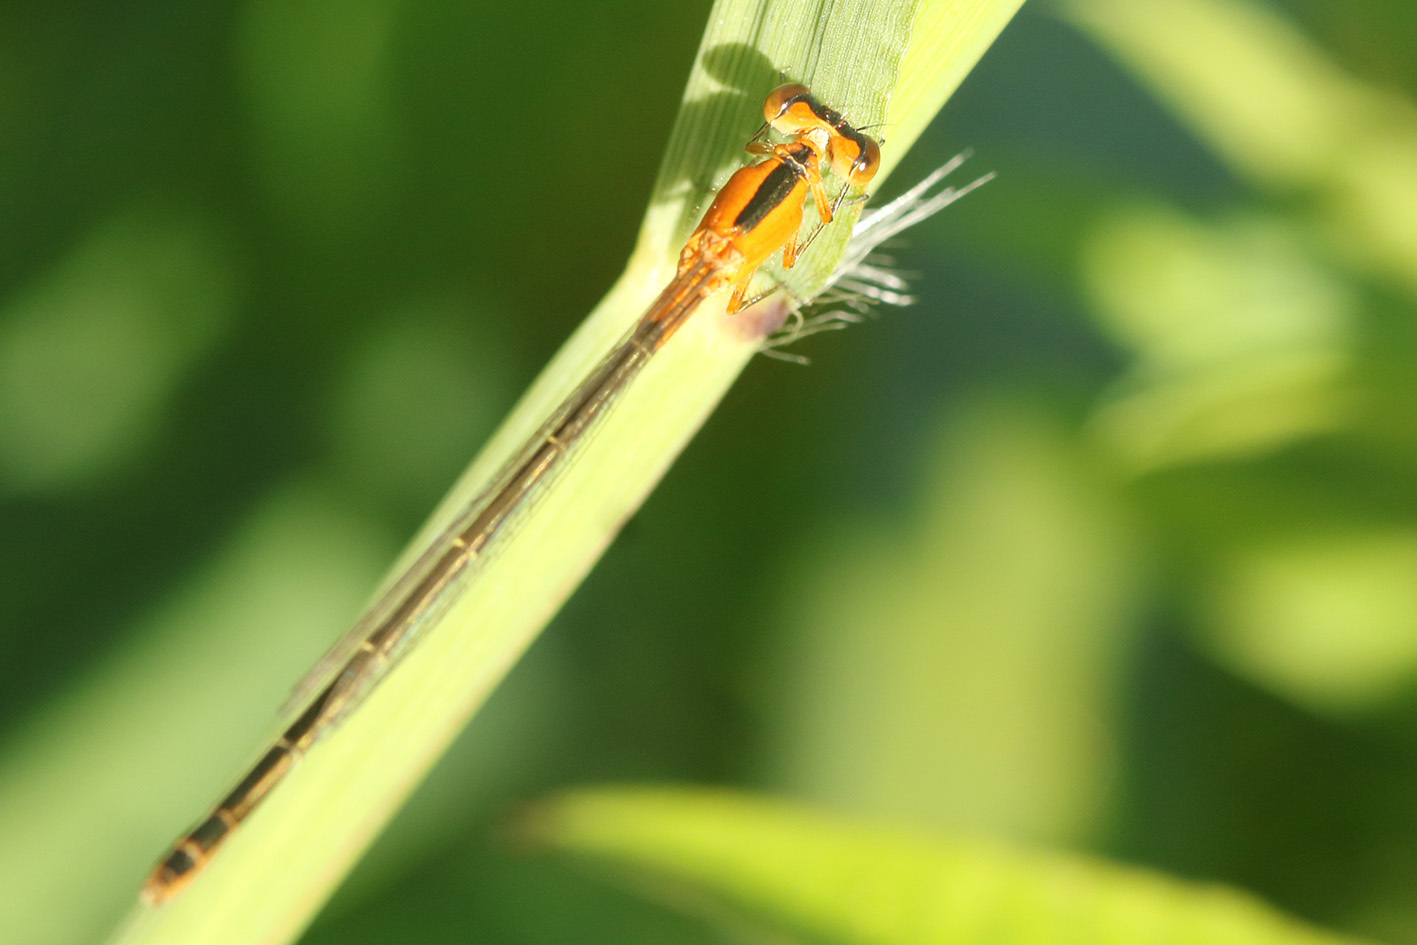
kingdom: Animalia
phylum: Arthropoda
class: Insecta
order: Odonata
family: Coenagrionidae
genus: Ischnura
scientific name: Ischnura fluviatilis
